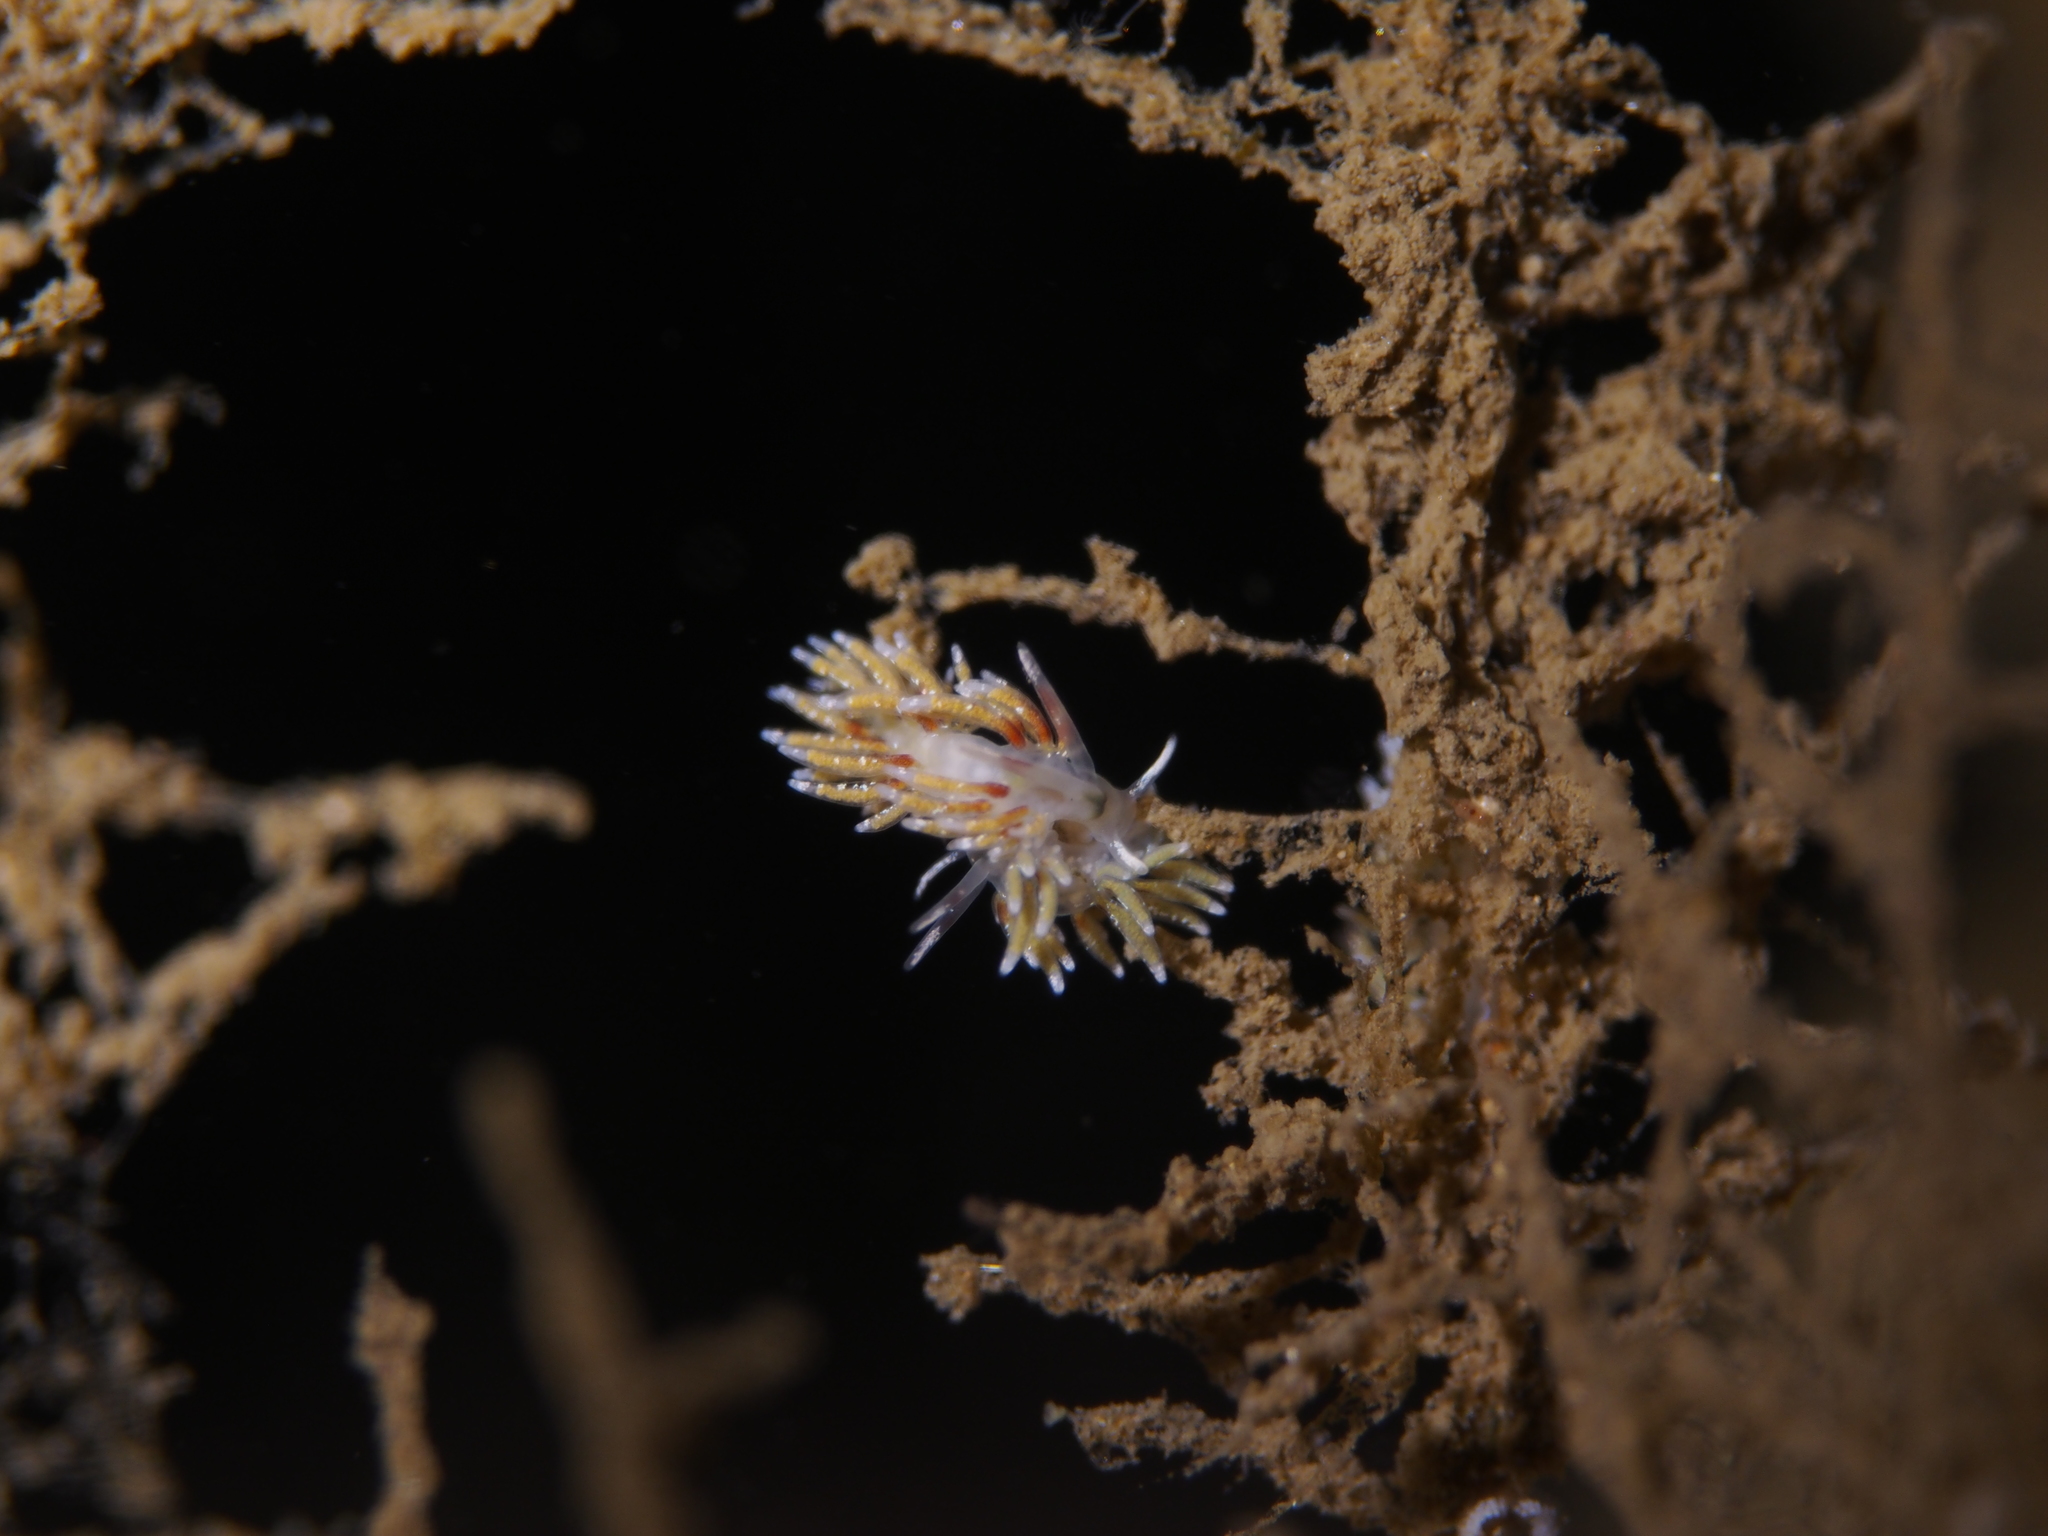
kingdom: Animalia
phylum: Mollusca
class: Gastropoda
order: Nudibranchia
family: Trinchesiidae
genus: Rubramoena
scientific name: Rubramoena rubescens
